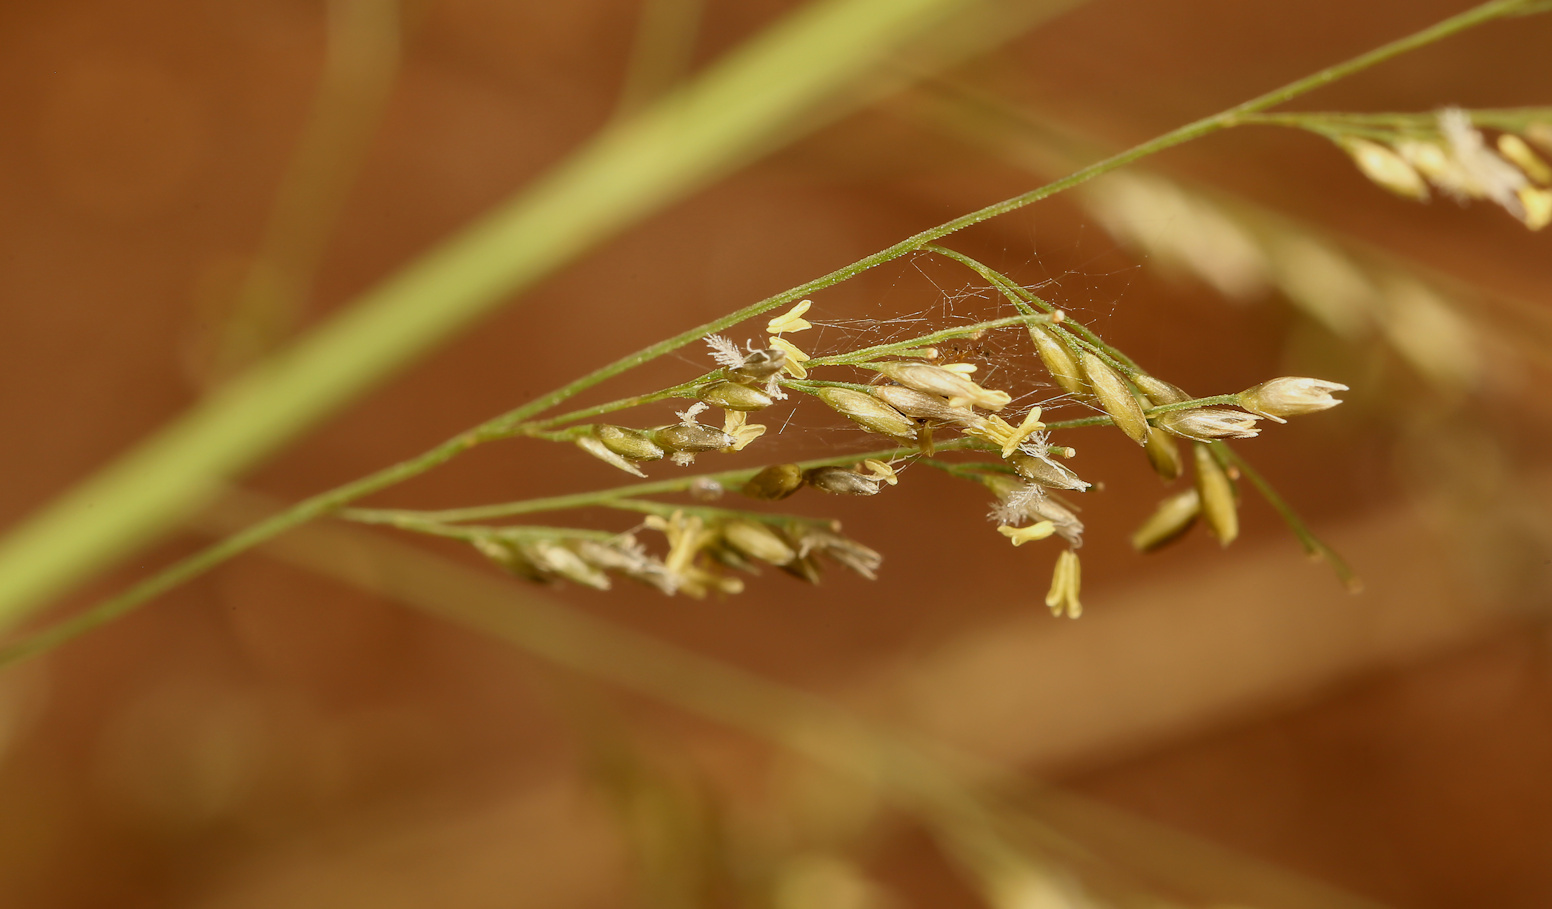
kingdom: Plantae
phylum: Tracheophyta
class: Liliopsida
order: Poales
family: Poaceae
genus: Sporobolus
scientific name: Sporobolus fimbriatus
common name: Fringed dropseed
